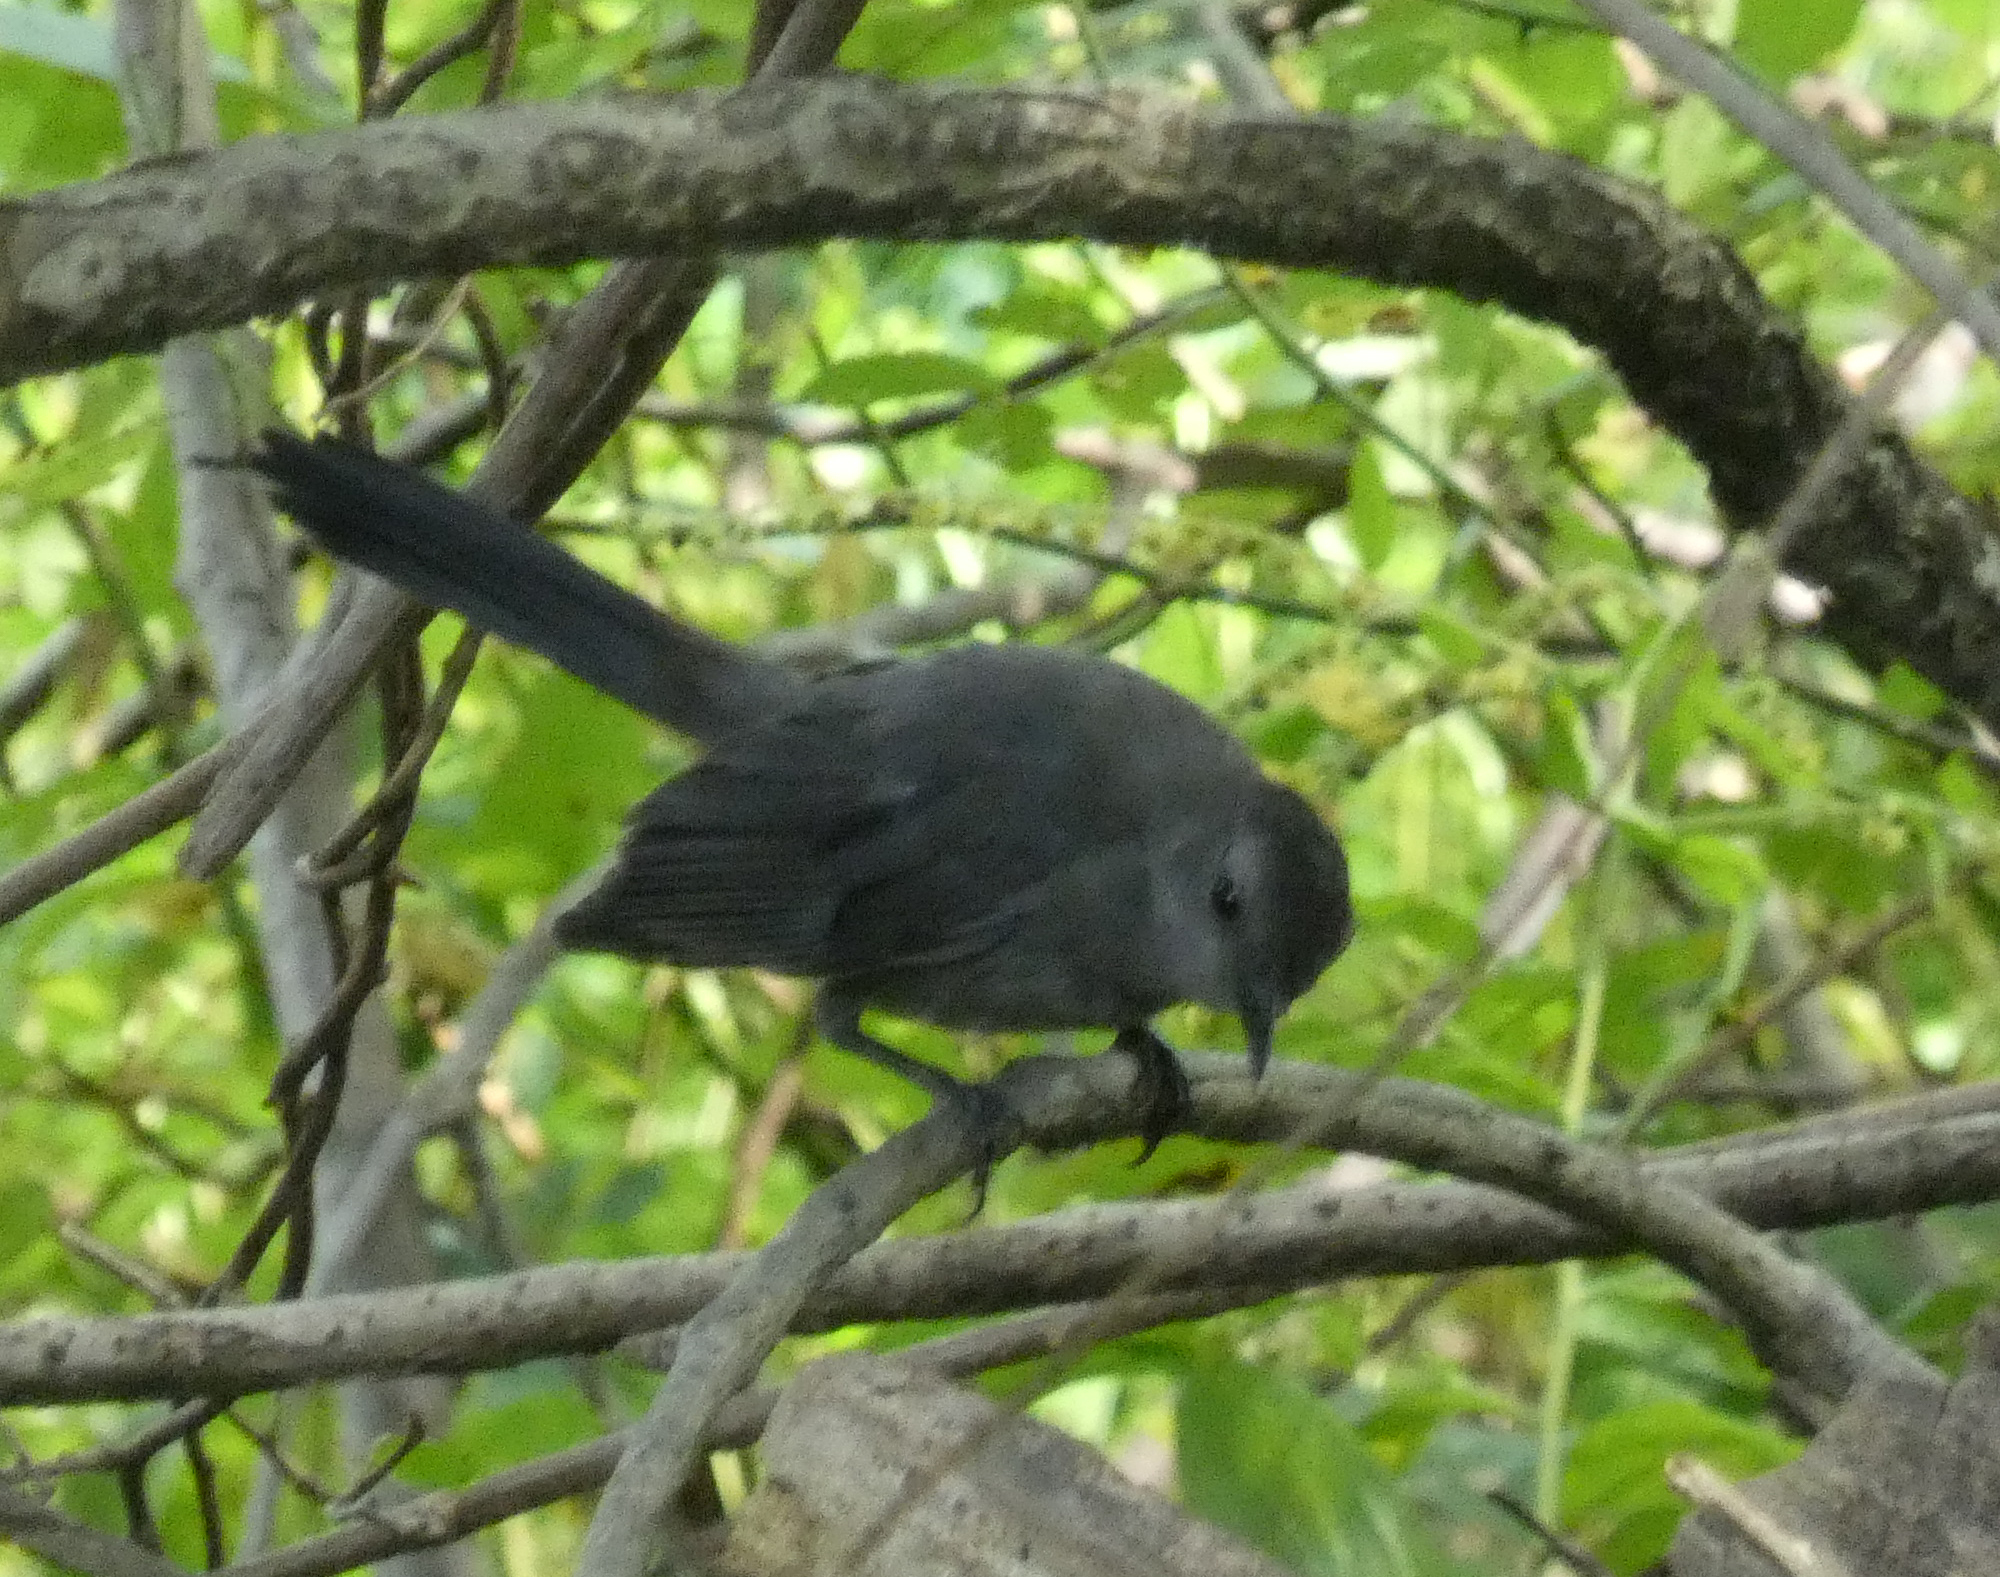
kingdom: Animalia
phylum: Chordata
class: Aves
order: Passeriformes
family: Mimidae
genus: Dumetella
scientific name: Dumetella carolinensis
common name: Gray catbird
